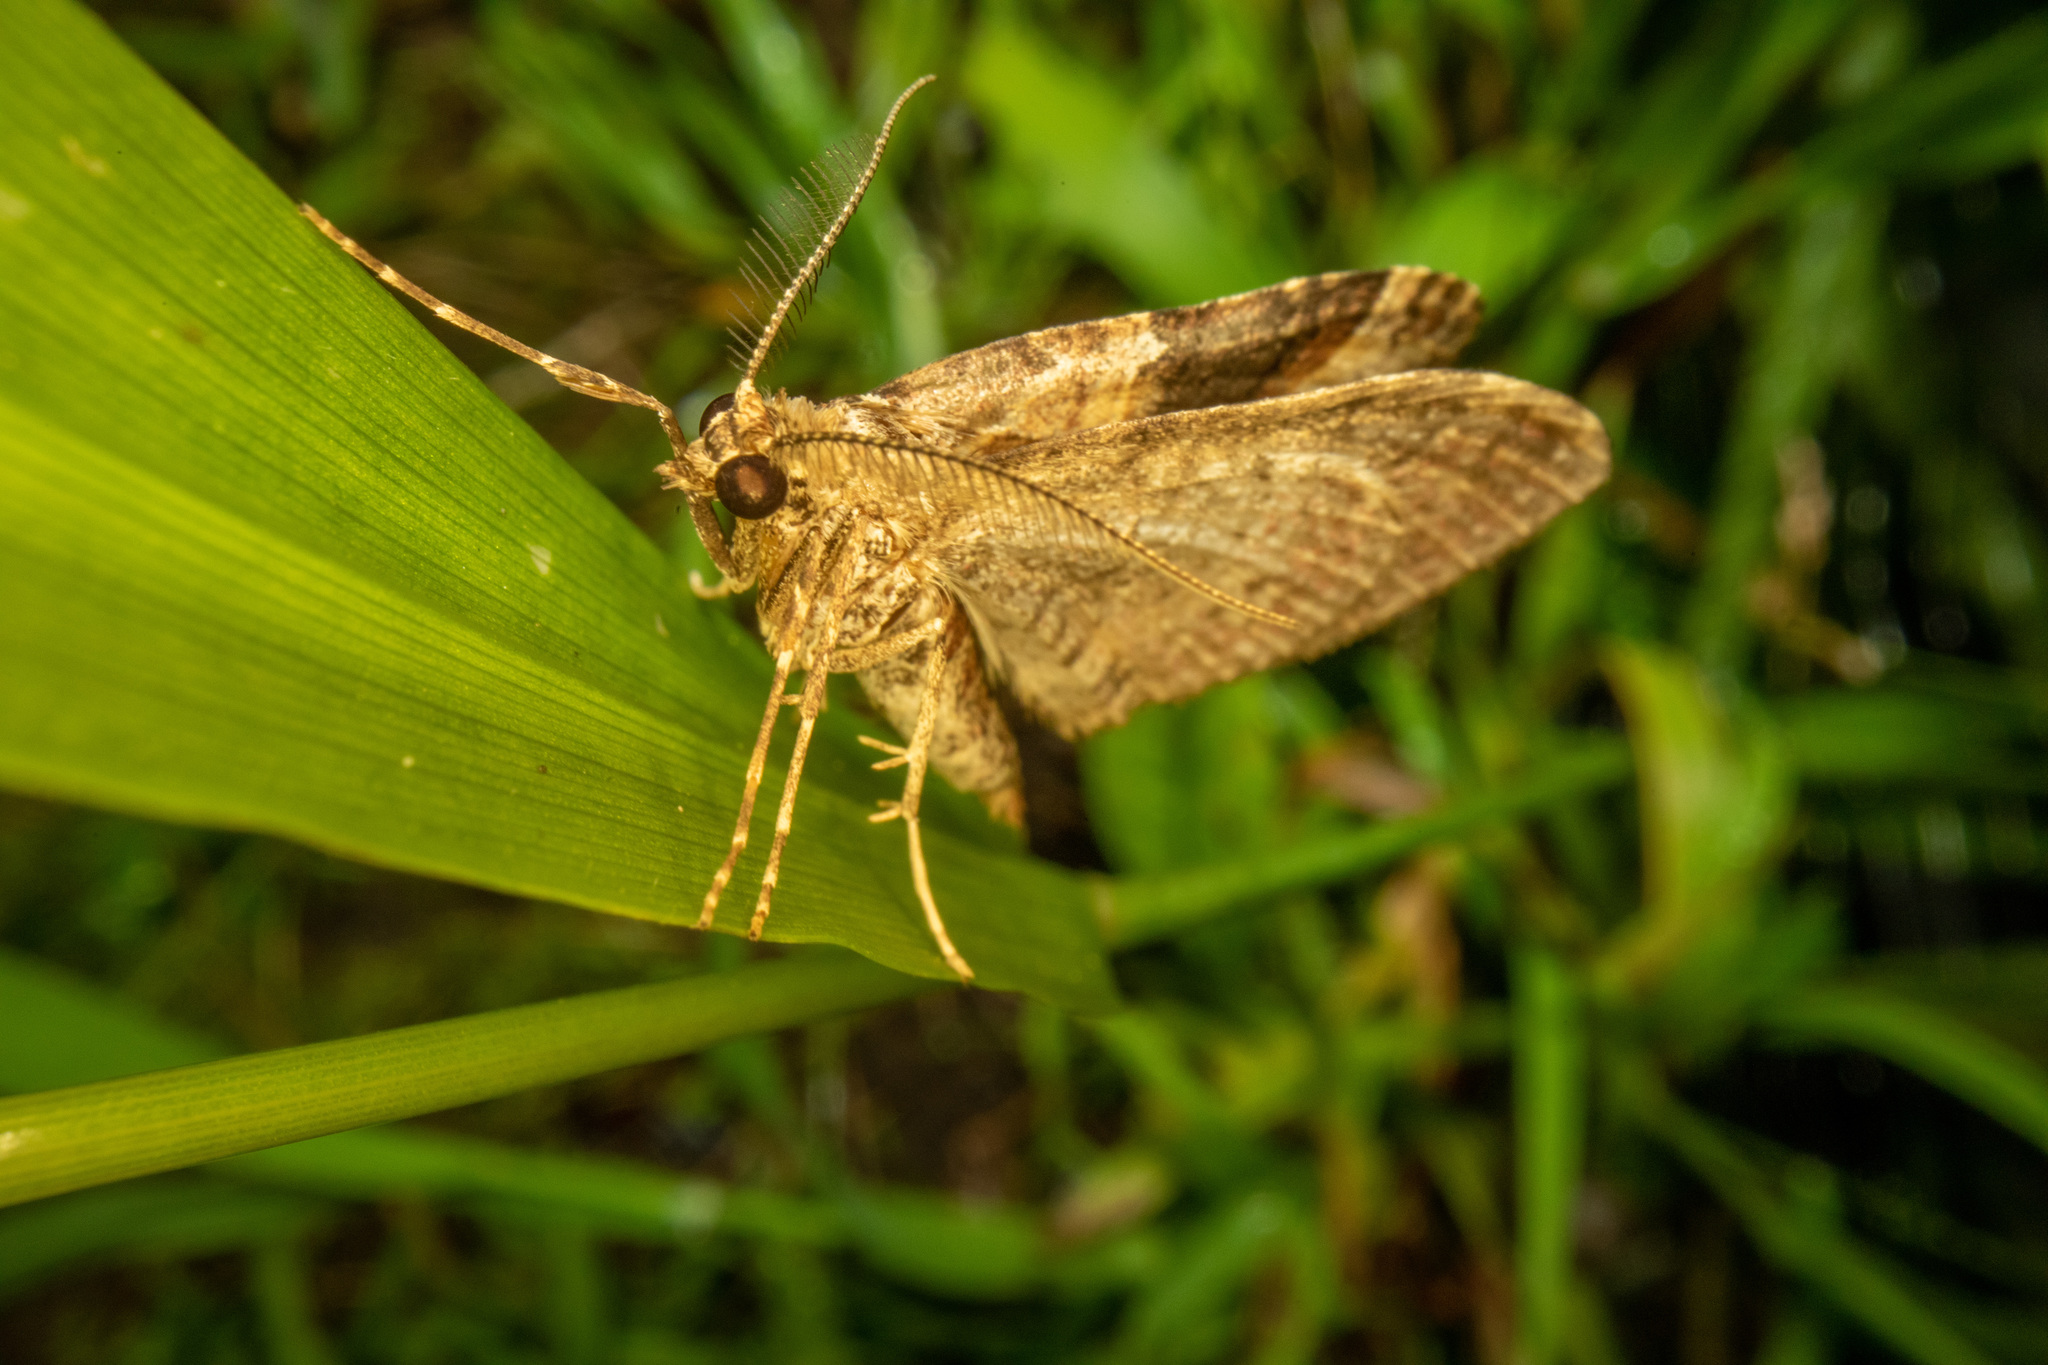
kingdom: Animalia
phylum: Arthropoda
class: Insecta
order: Lepidoptera
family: Geometridae
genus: Epyaxa
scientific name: Epyaxa lucidata
